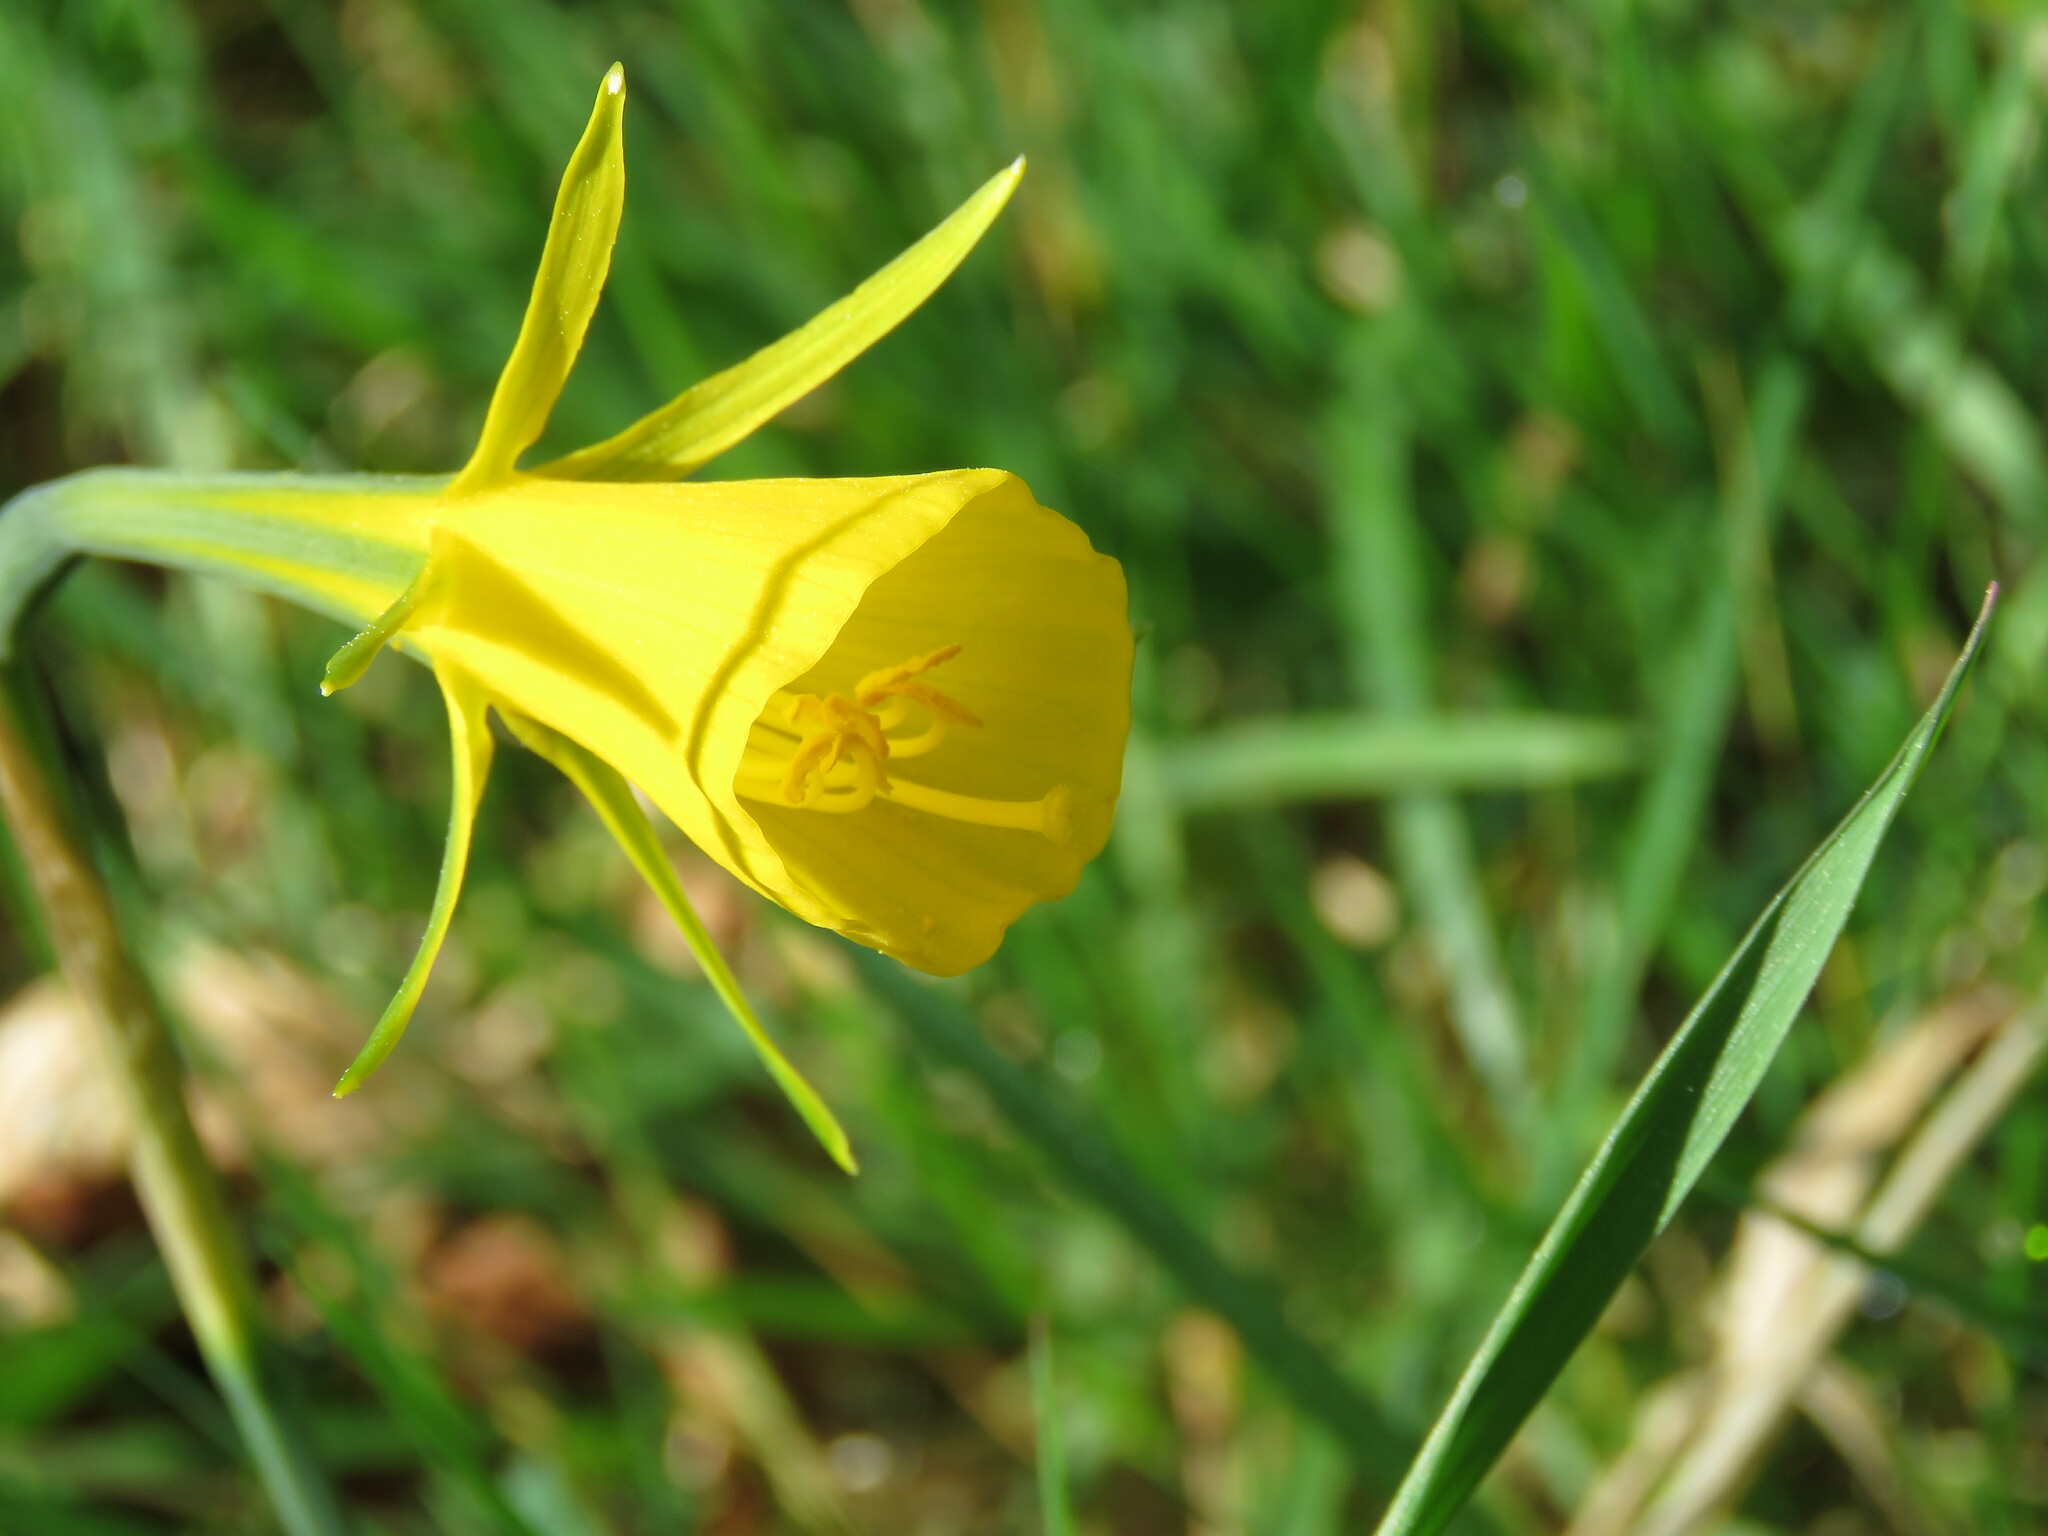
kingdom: Plantae
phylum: Tracheophyta
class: Liliopsida
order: Asparagales
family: Amaryllidaceae
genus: Narcissus
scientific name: Narcissus bulbocodium
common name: Hoop-petticoat daffodil
